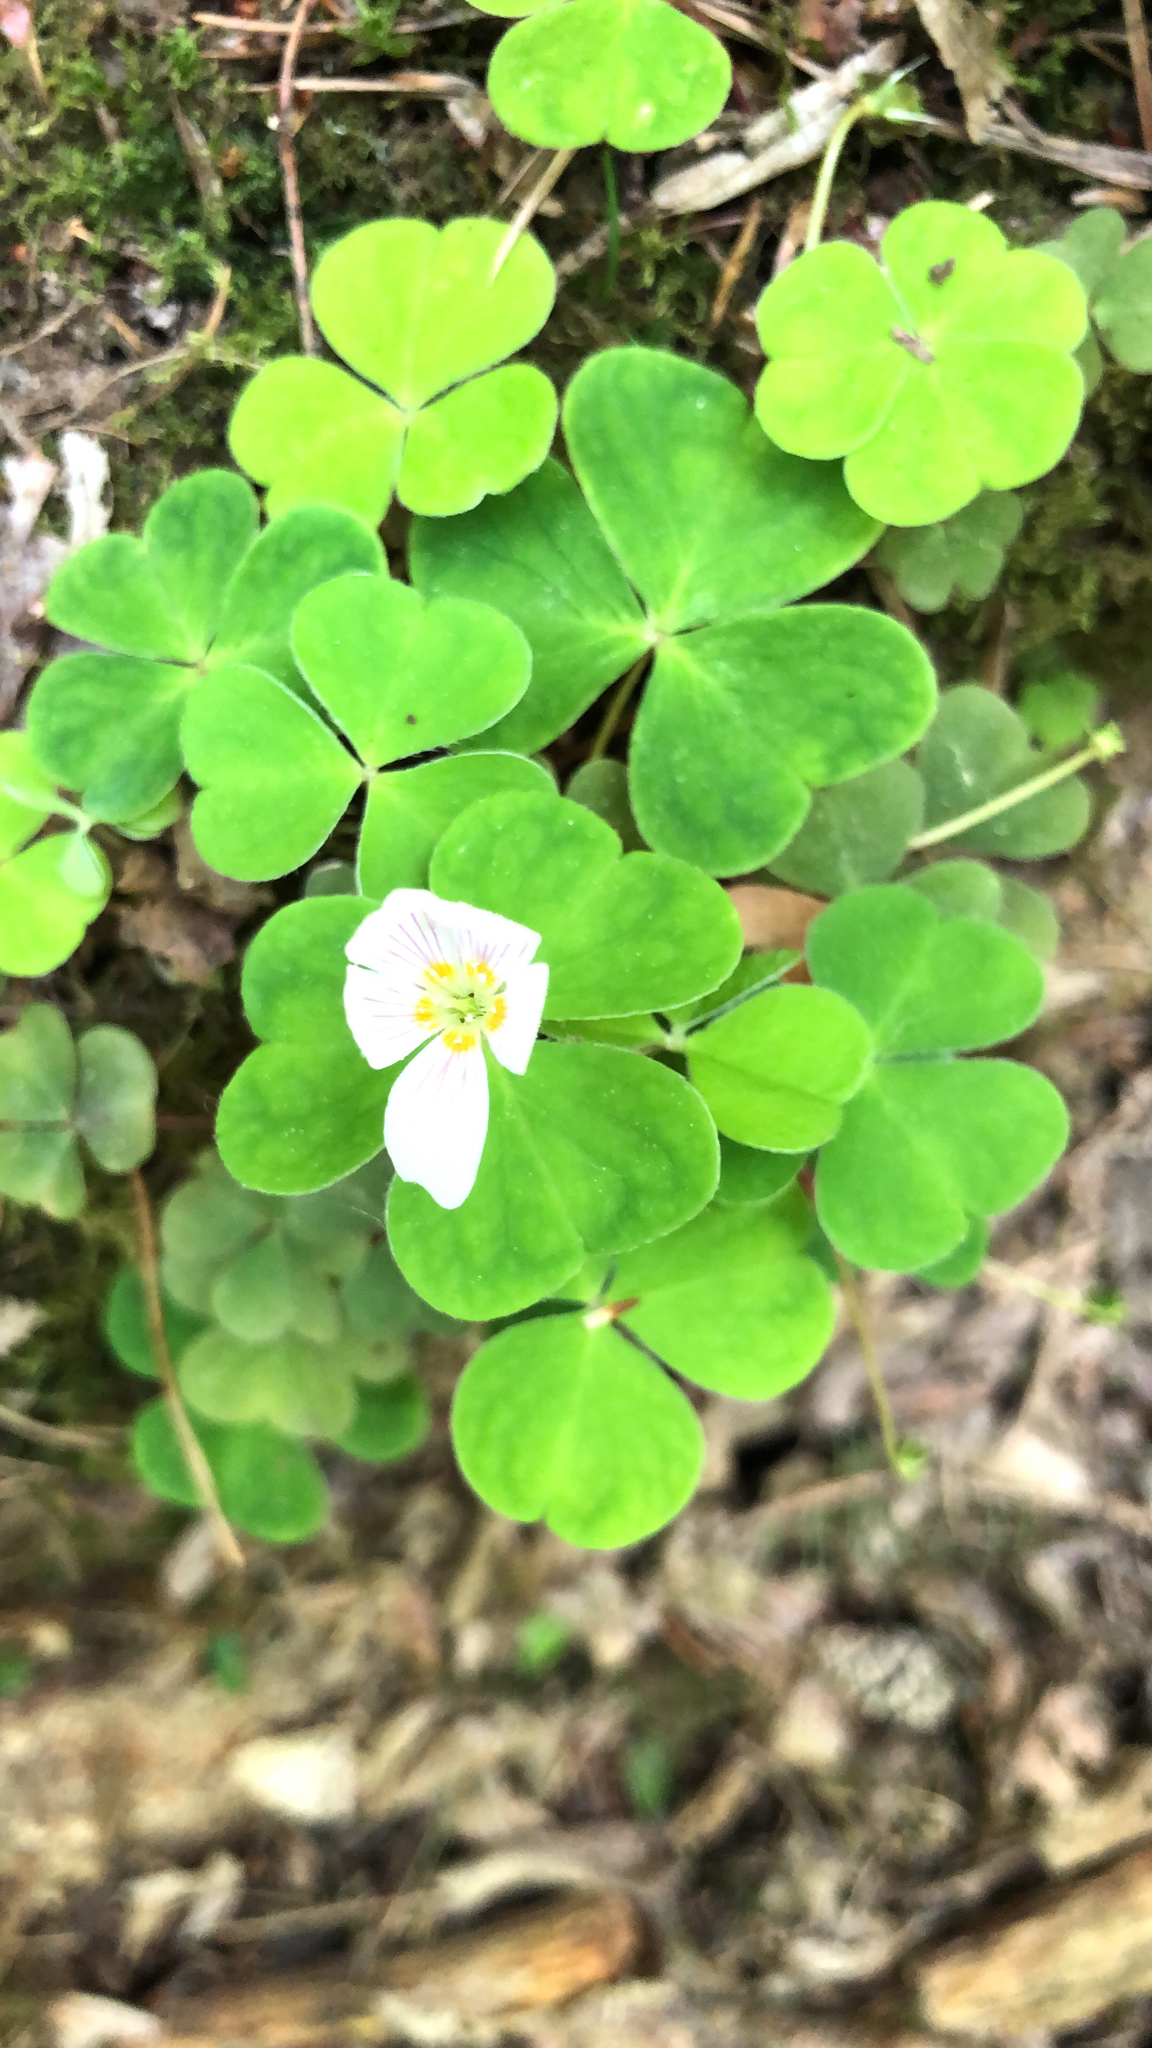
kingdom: Plantae
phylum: Tracheophyta
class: Magnoliopsida
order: Oxalidales
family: Oxalidaceae
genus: Oxalis
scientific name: Oxalis acetosella
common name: Wood-sorrel
